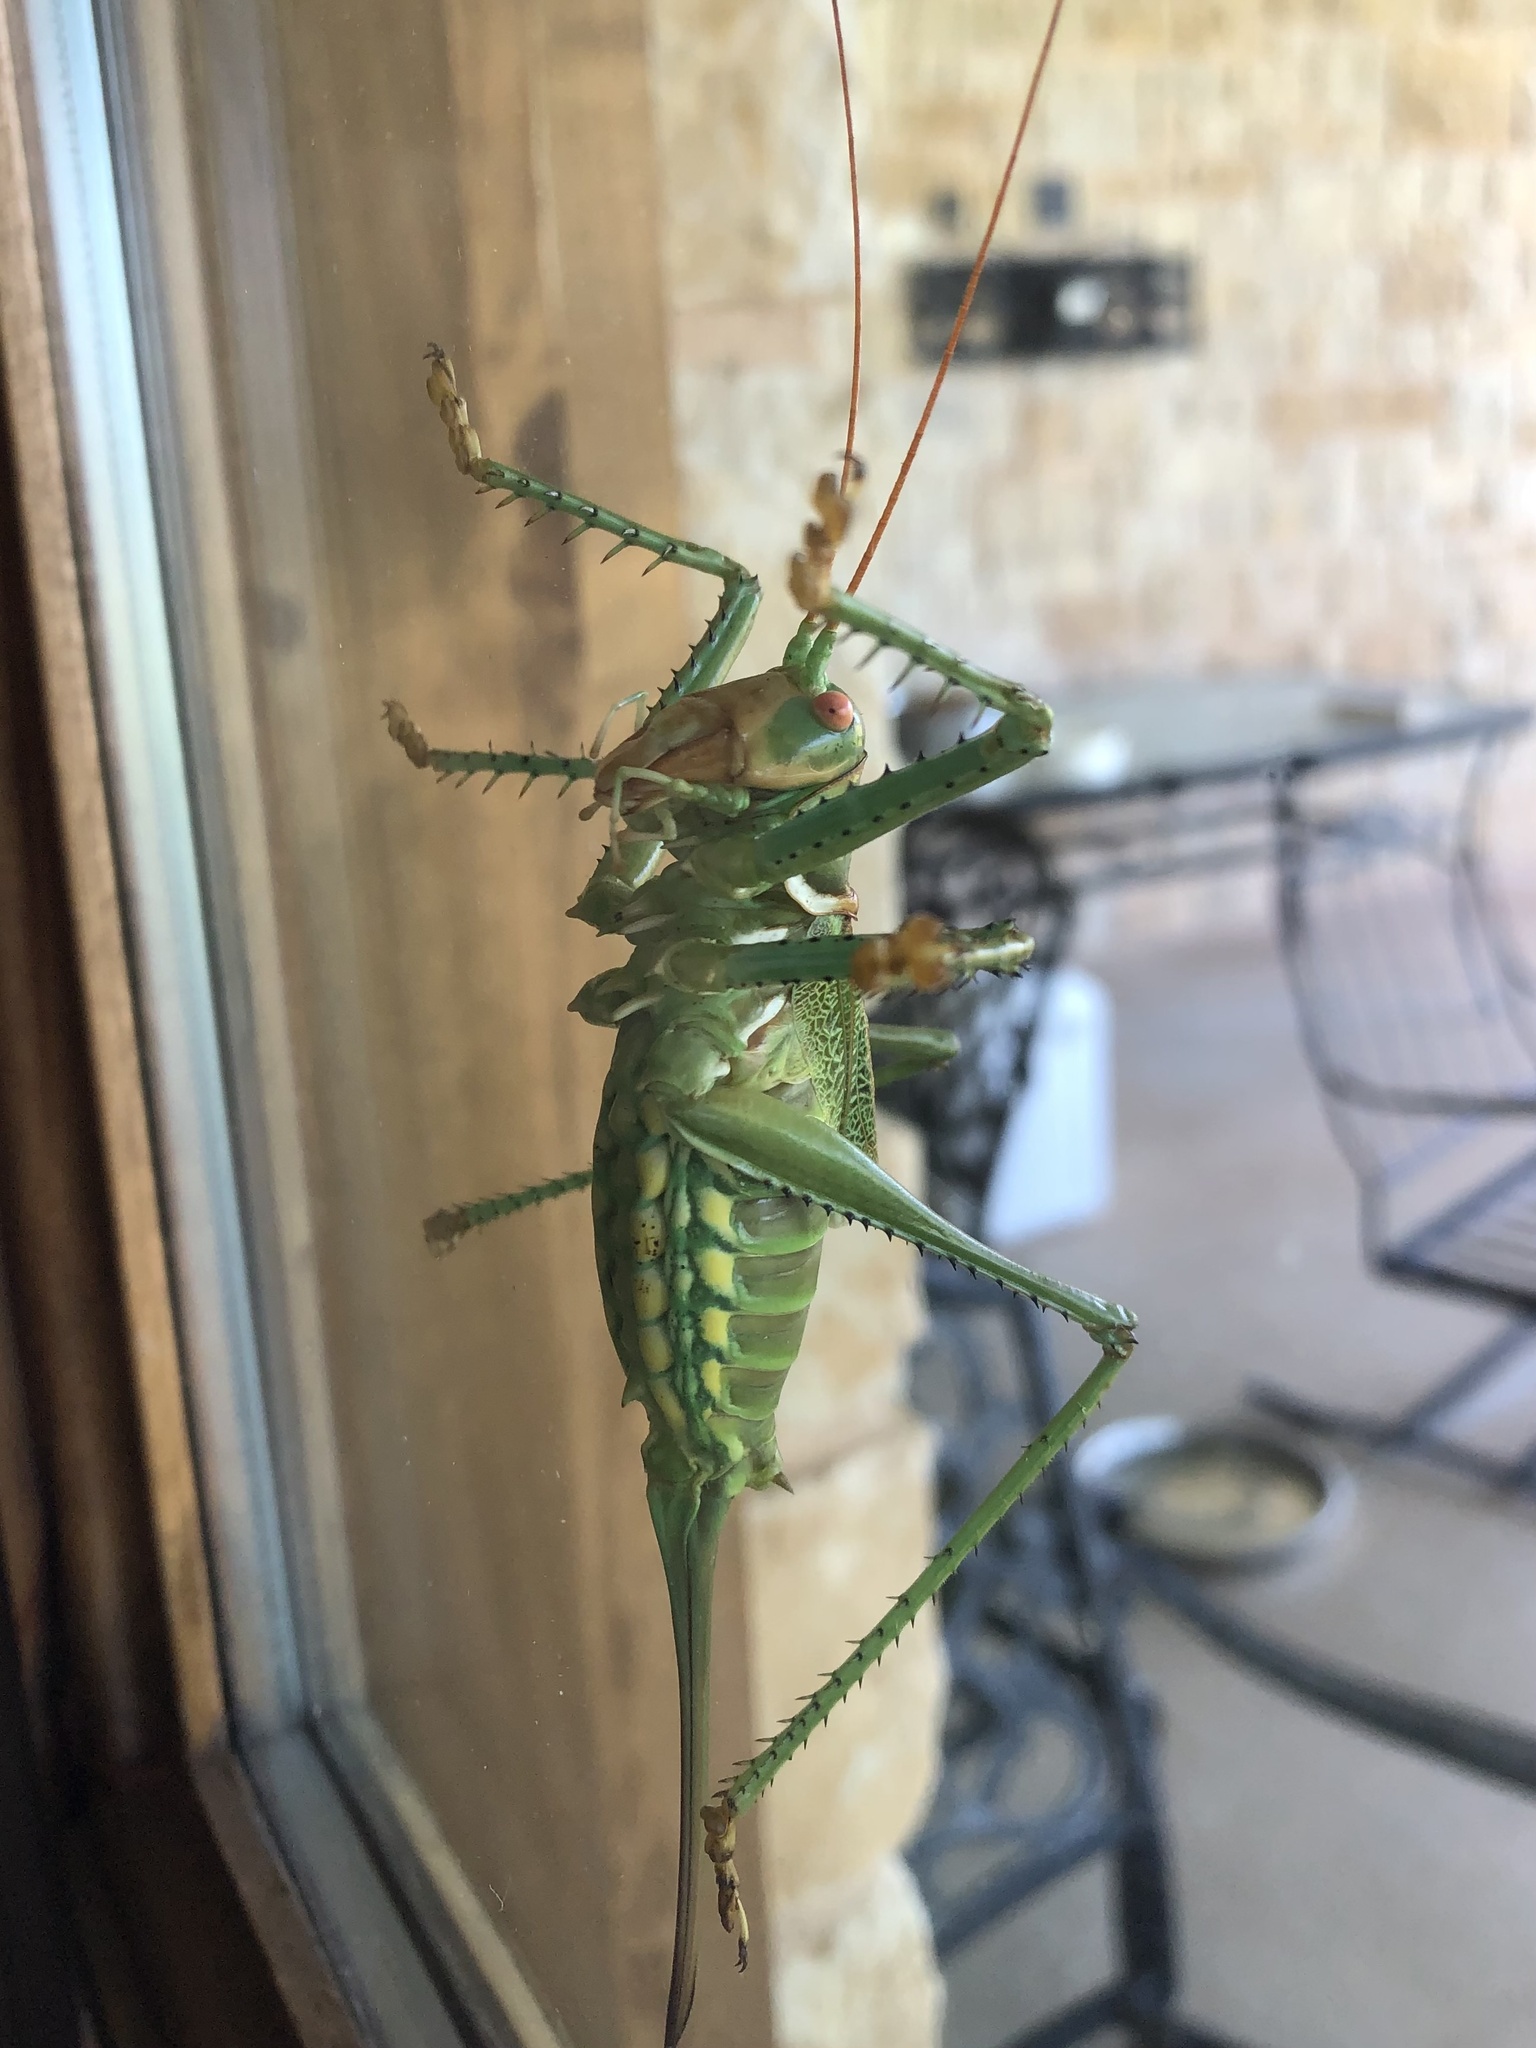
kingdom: Animalia
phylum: Arthropoda
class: Insecta
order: Orthoptera
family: Tettigoniidae
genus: Neobarrettia
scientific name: Neobarrettia spinosa
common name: Greater arid-land katydid
